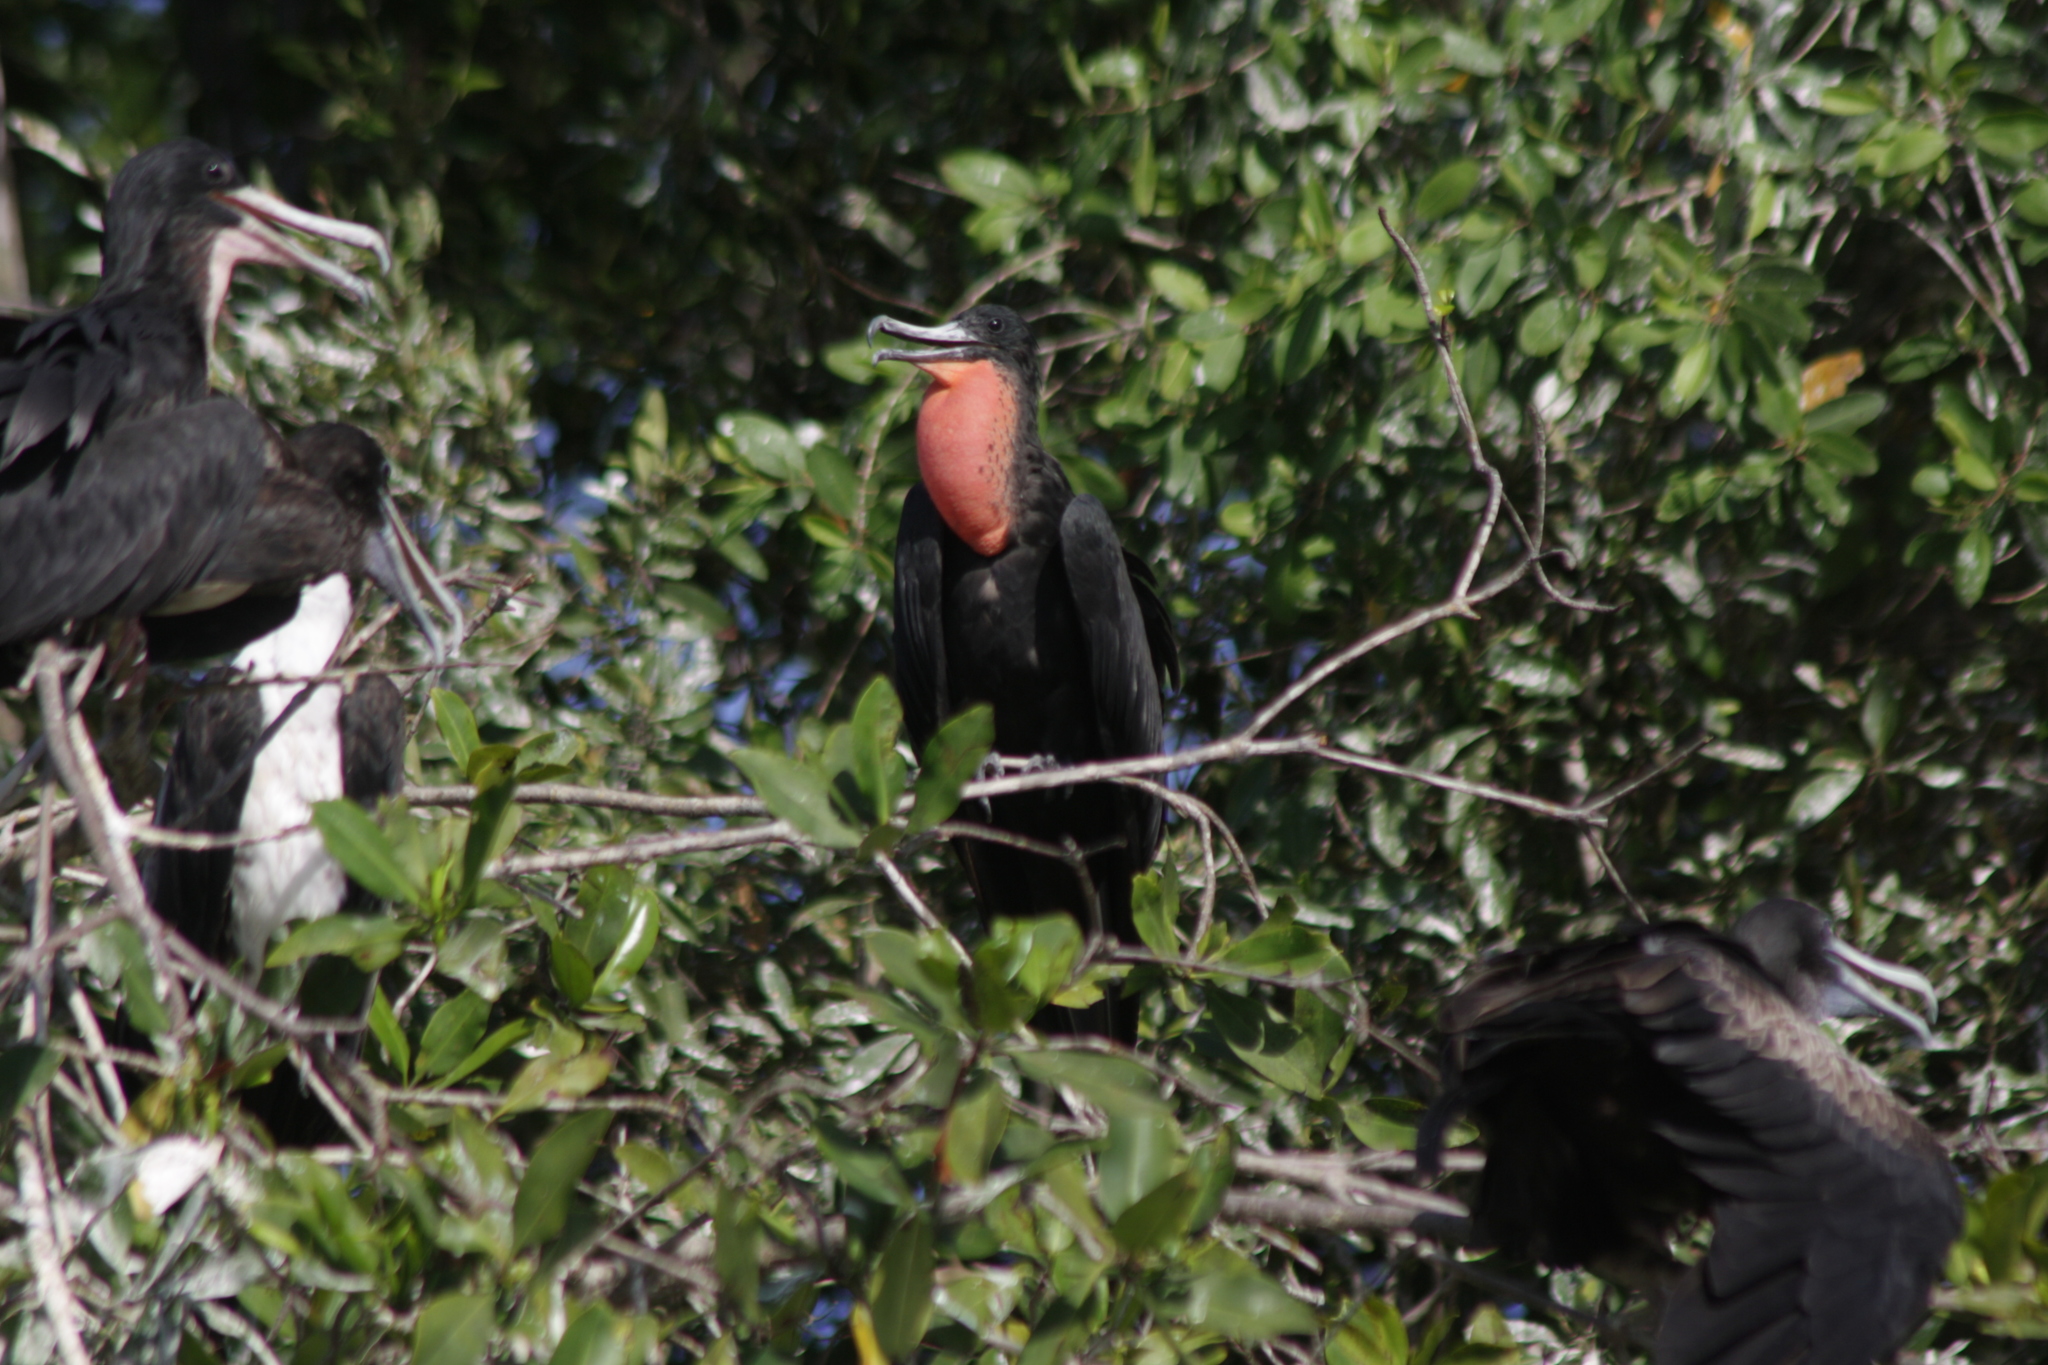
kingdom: Animalia
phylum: Chordata
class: Aves
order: Suliformes
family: Fregatidae
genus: Fregata
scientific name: Fregata magnificens
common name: Magnificent frigatebird
